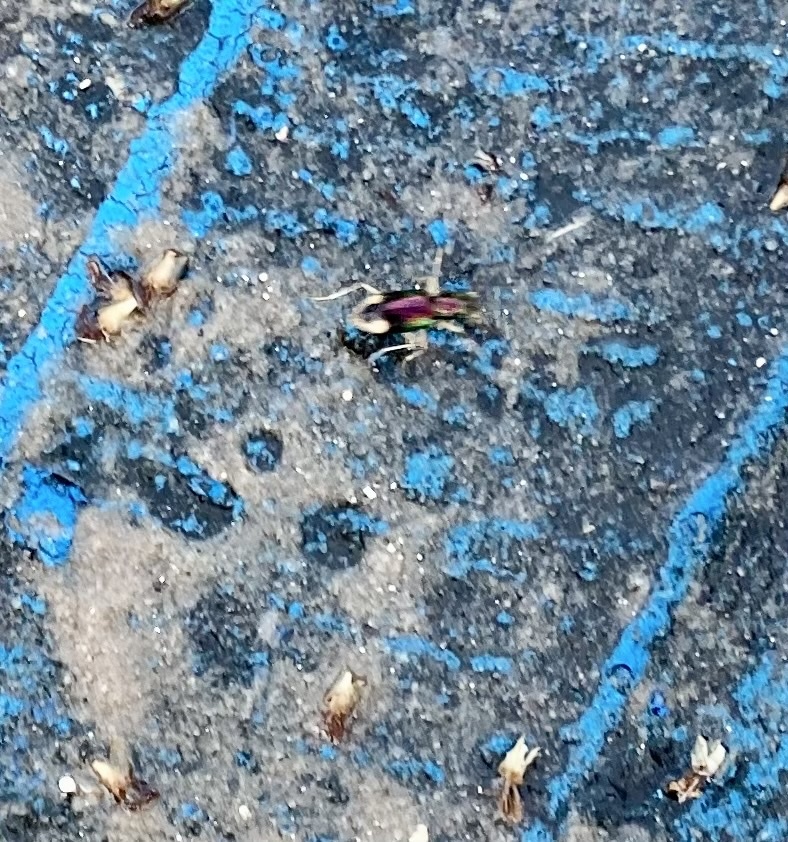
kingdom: Animalia
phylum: Arthropoda
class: Insecta
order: Coleoptera
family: Carabidae
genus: Tetracha
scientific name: Tetracha carolina
